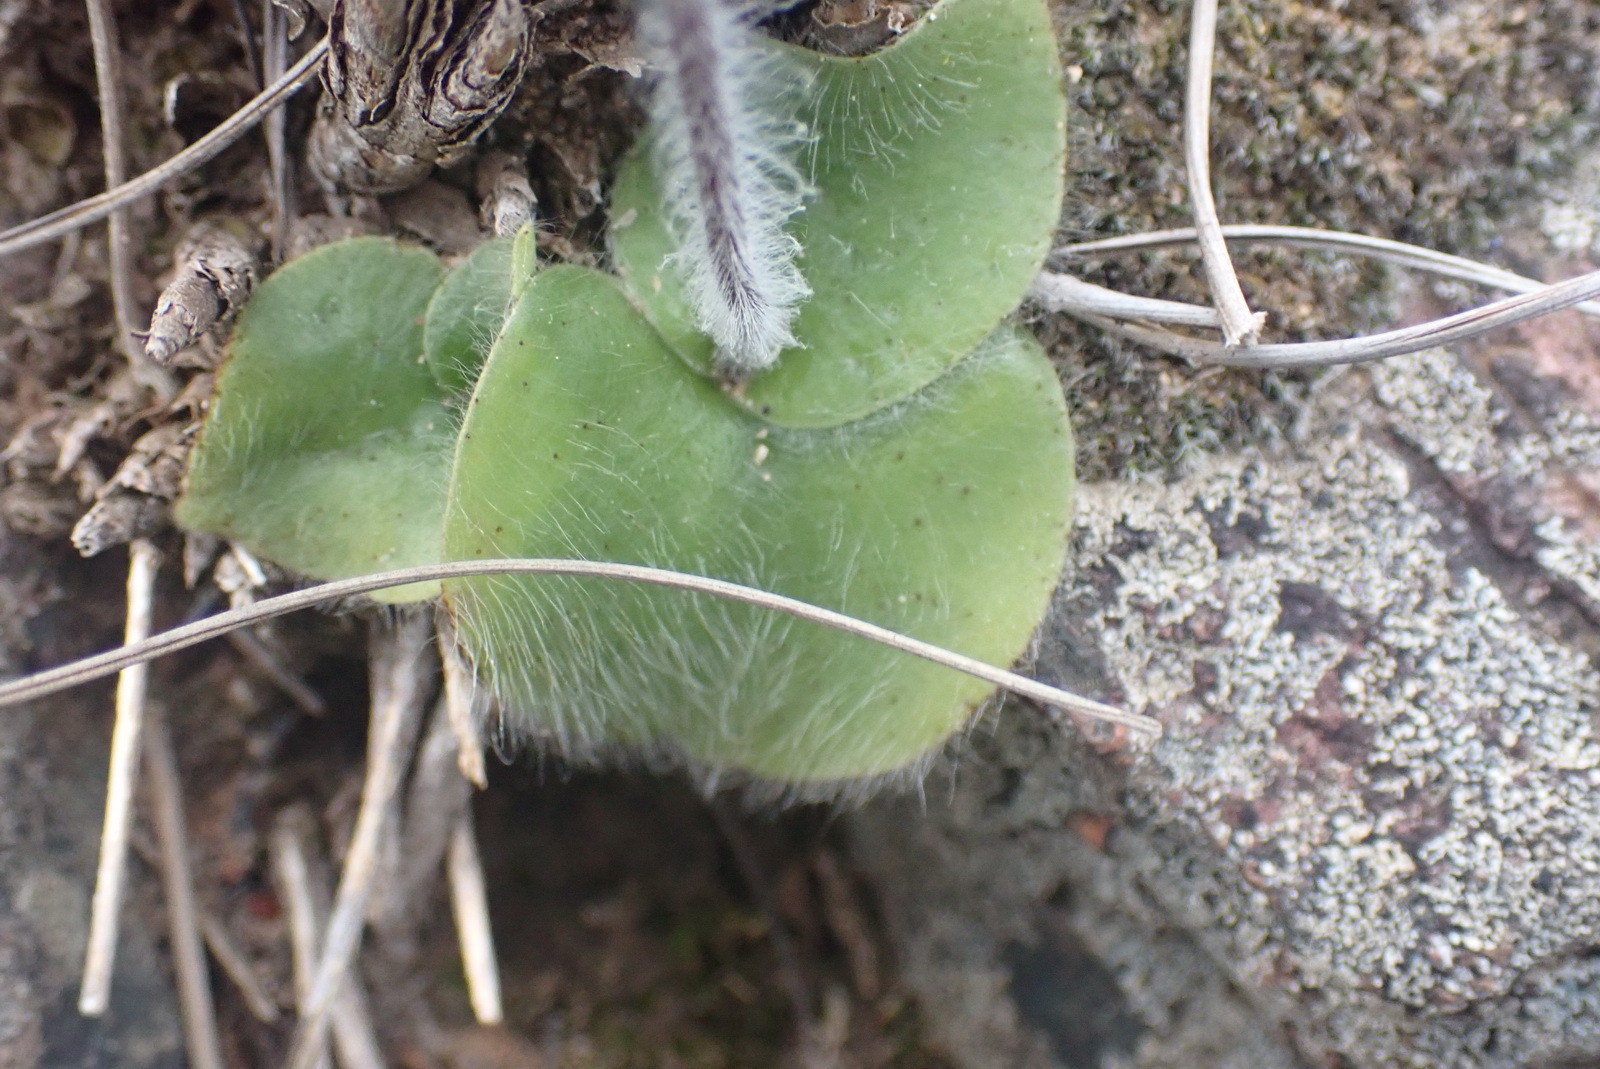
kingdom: Plantae
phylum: Tracheophyta
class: Liliopsida
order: Asparagales
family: Orchidaceae
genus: Holothrix
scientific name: Holothrix villosa
